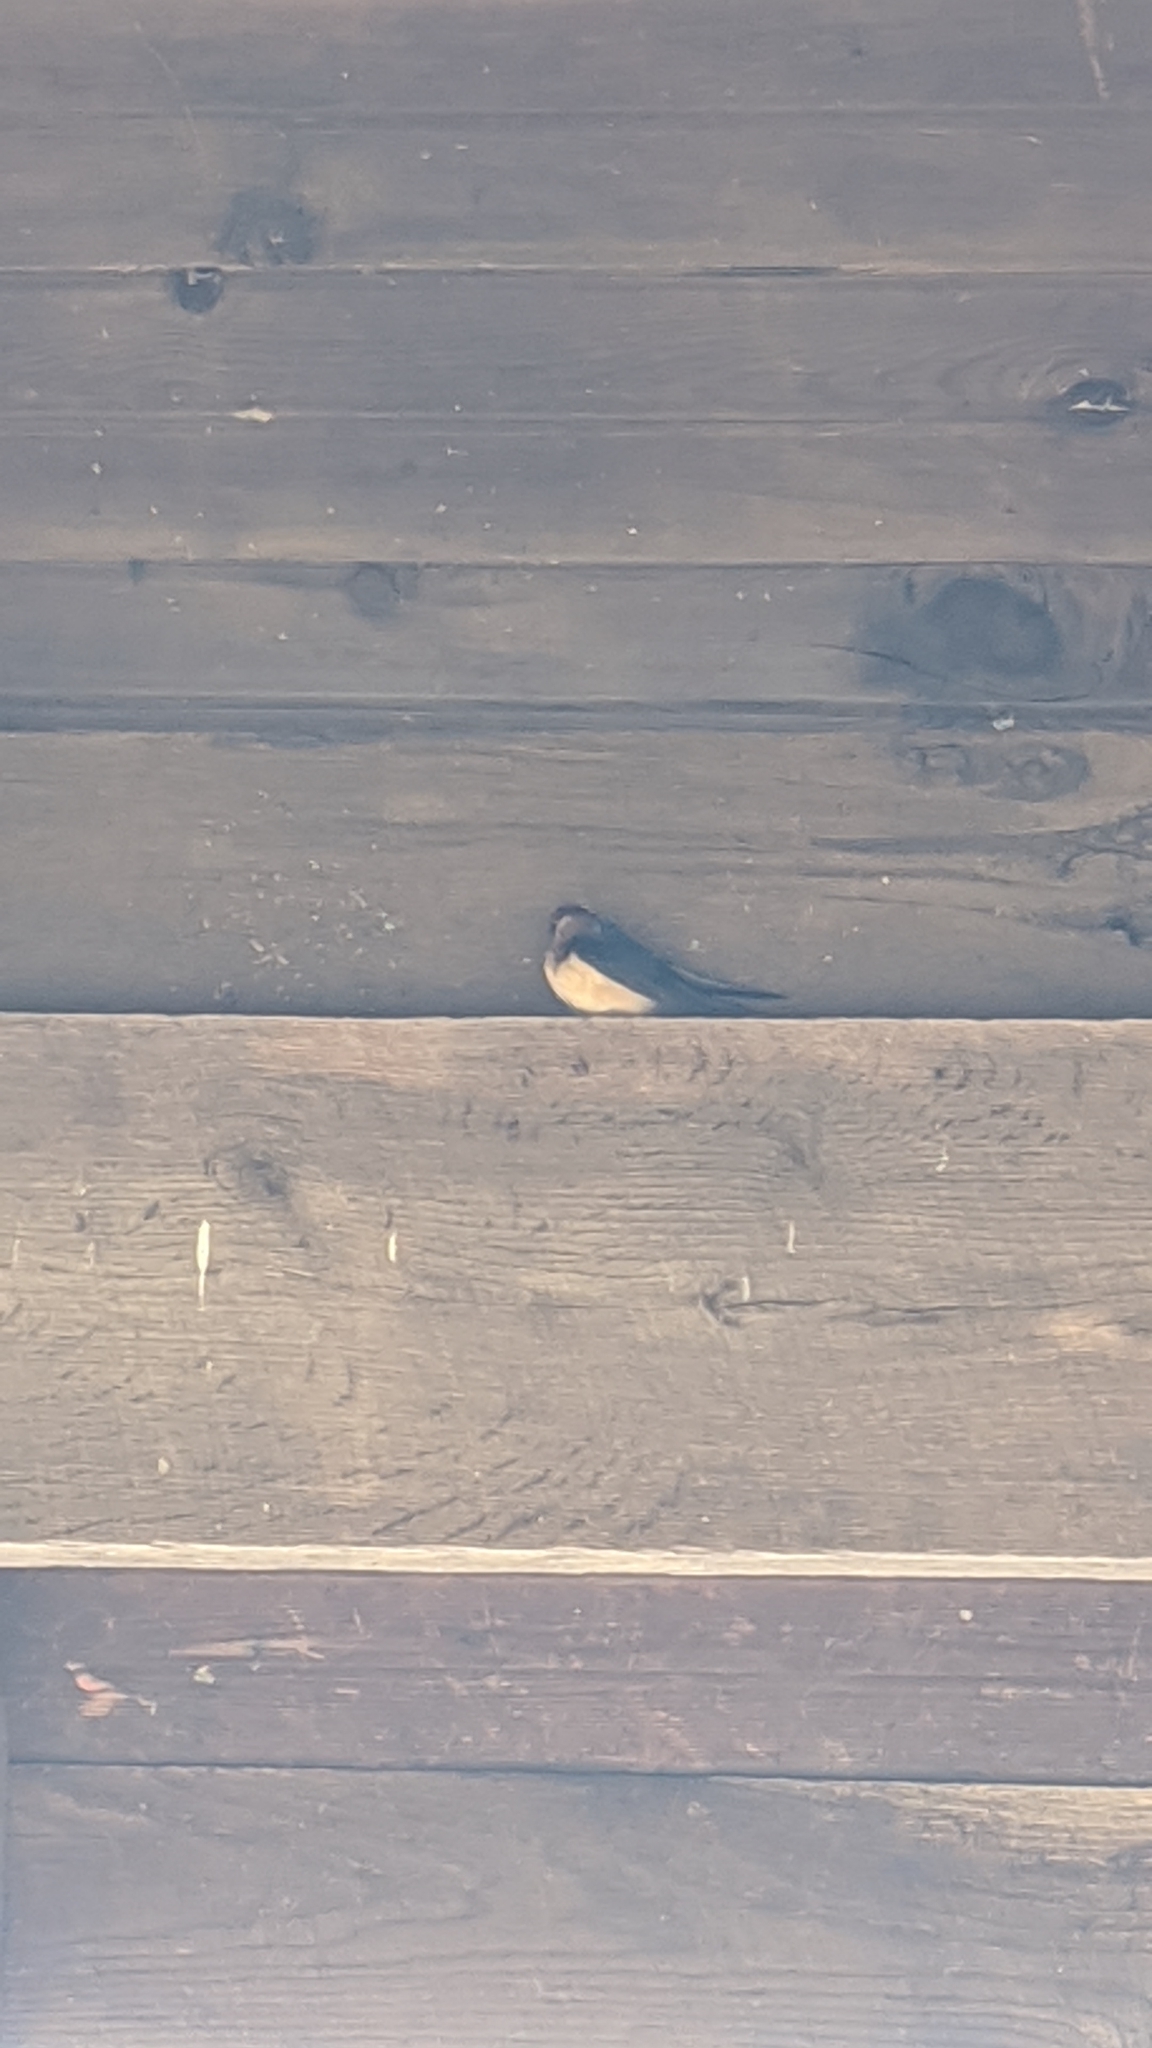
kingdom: Animalia
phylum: Chordata
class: Aves
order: Passeriformes
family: Hirundinidae
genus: Hirundo
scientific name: Hirundo rustica
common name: Barn swallow
